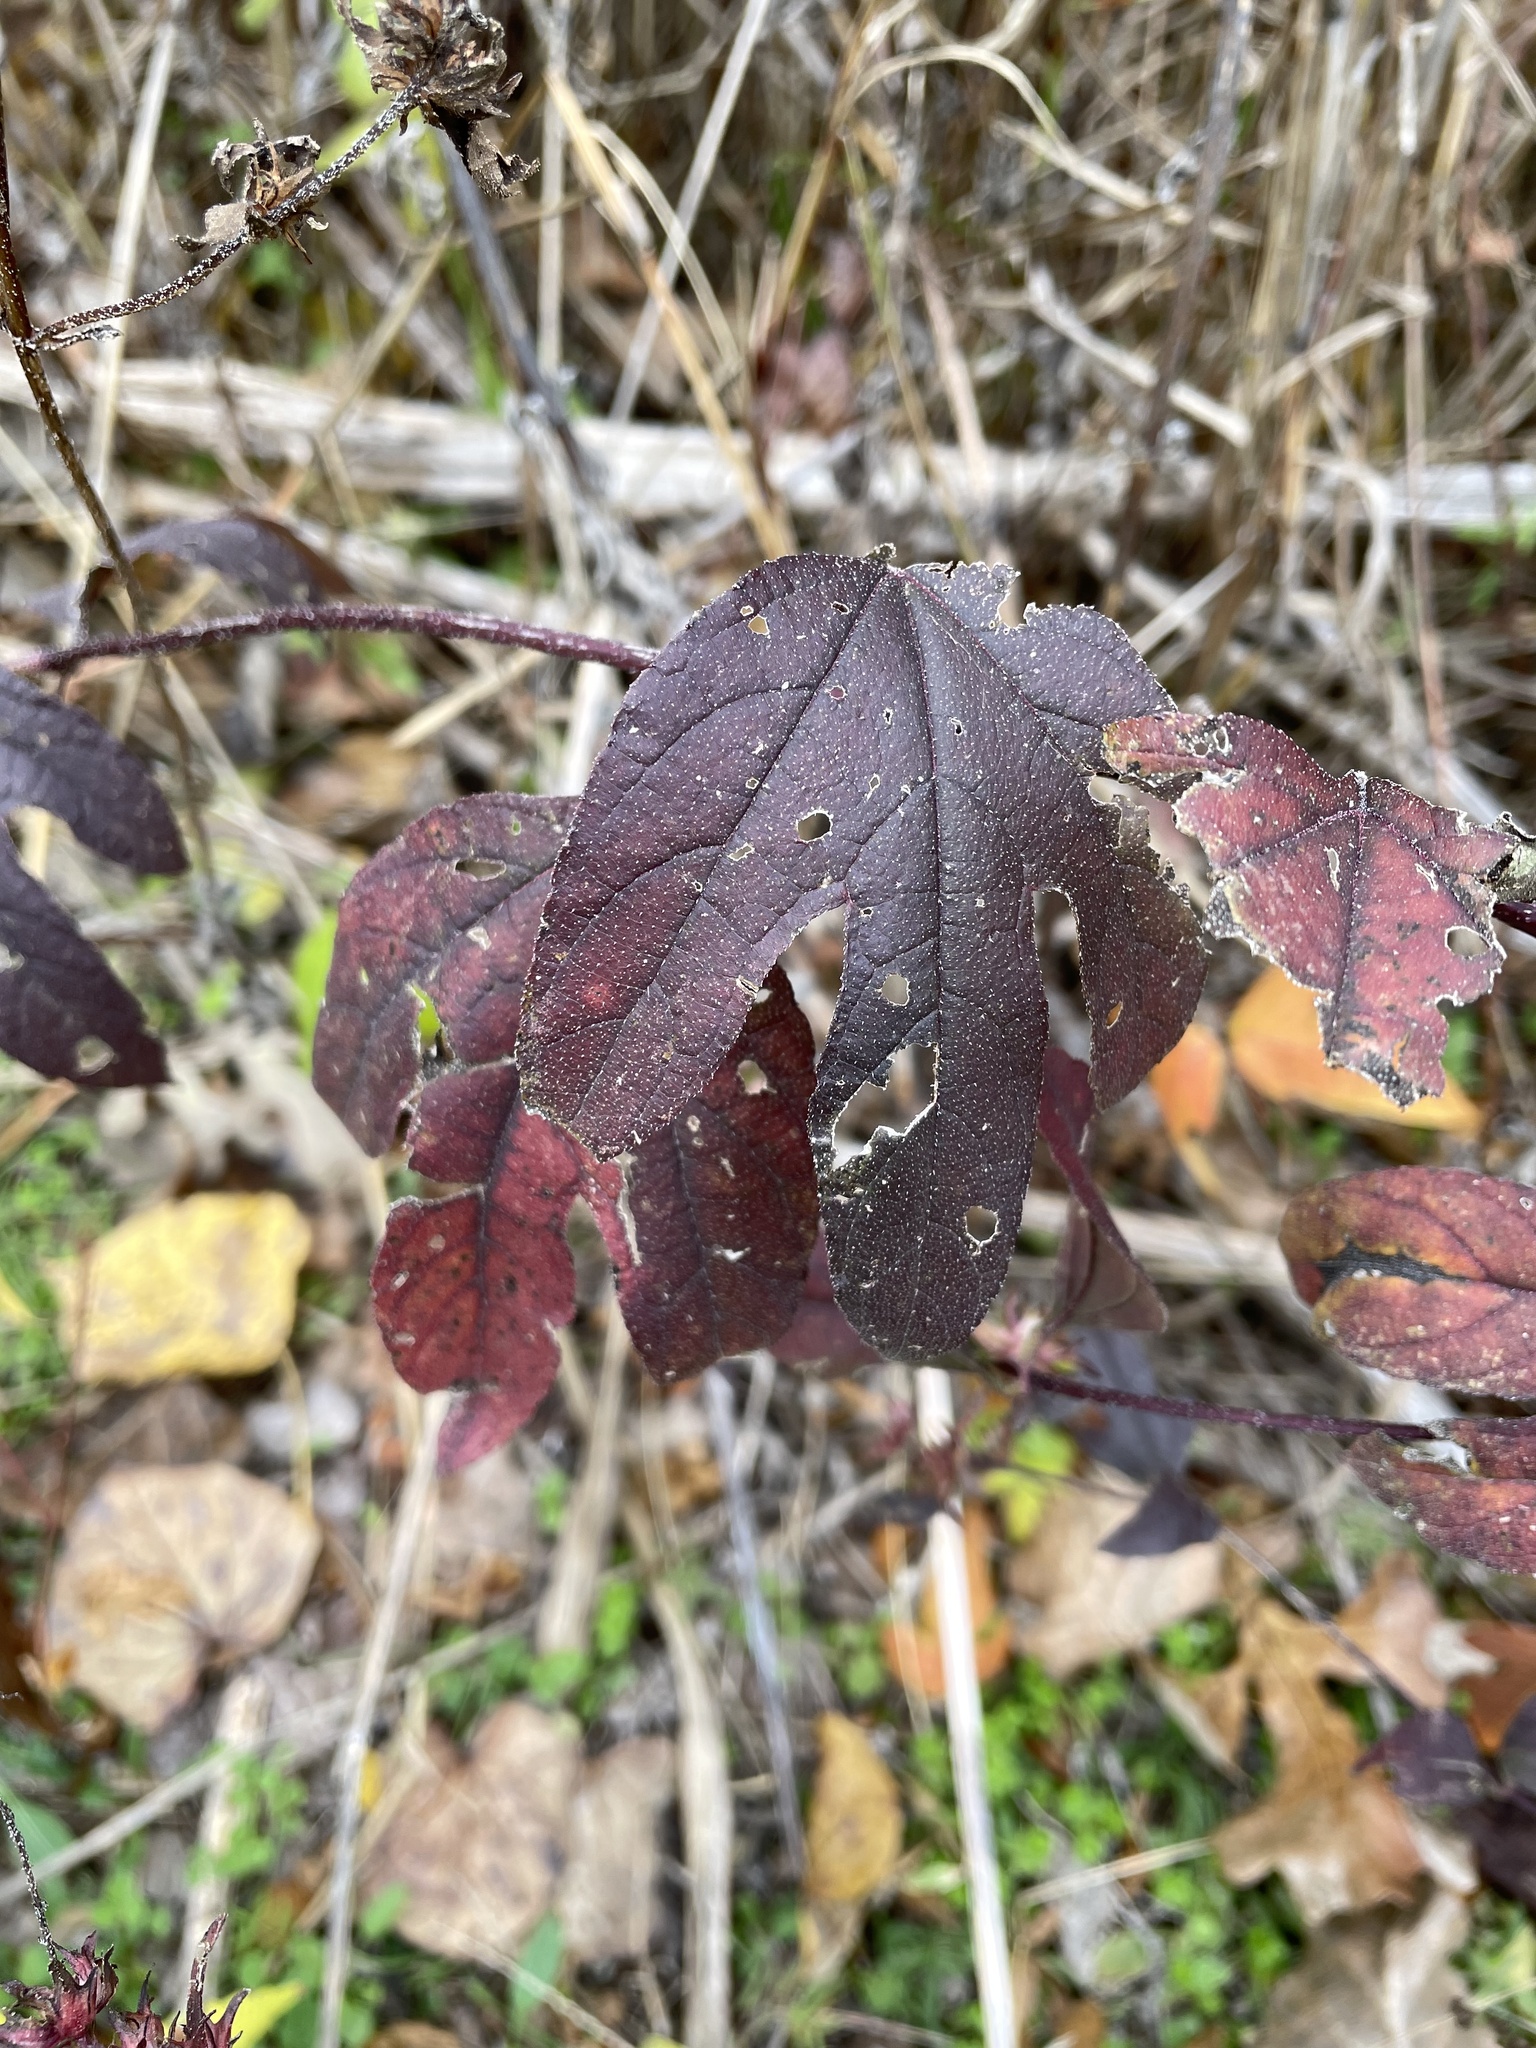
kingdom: Plantae
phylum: Tracheophyta
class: Magnoliopsida
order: Asterales
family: Asteraceae
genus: Ambrosia
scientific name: Ambrosia trifida
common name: Giant ragweed
